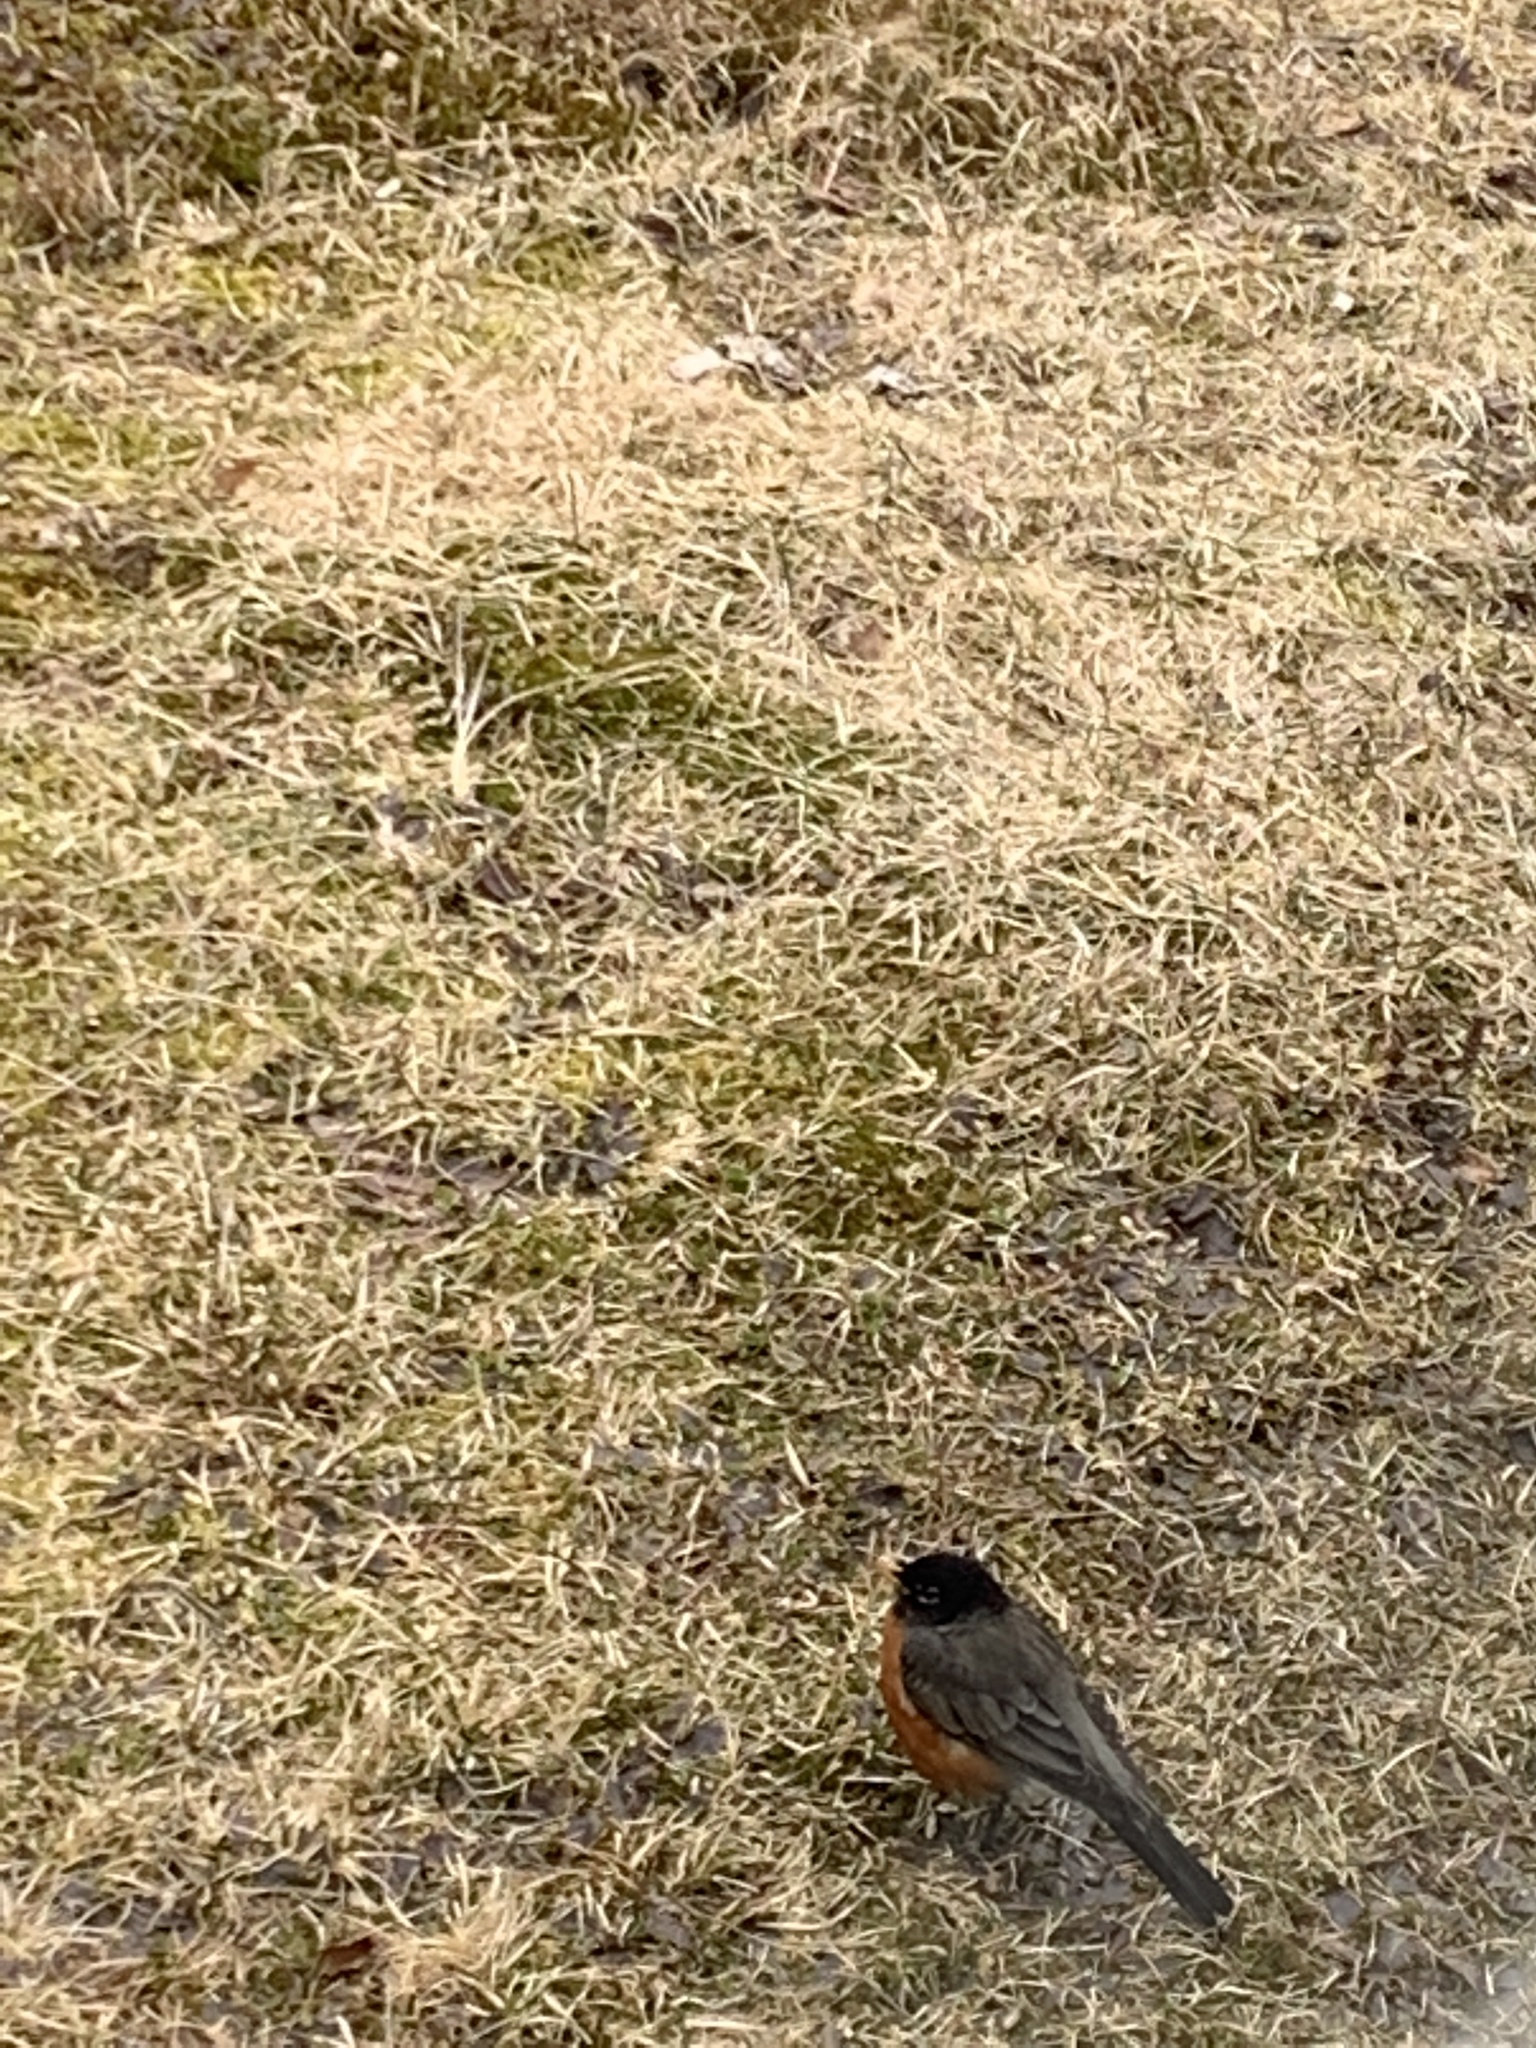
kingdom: Animalia
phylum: Chordata
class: Aves
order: Passeriformes
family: Turdidae
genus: Turdus
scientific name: Turdus migratorius
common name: American robin
